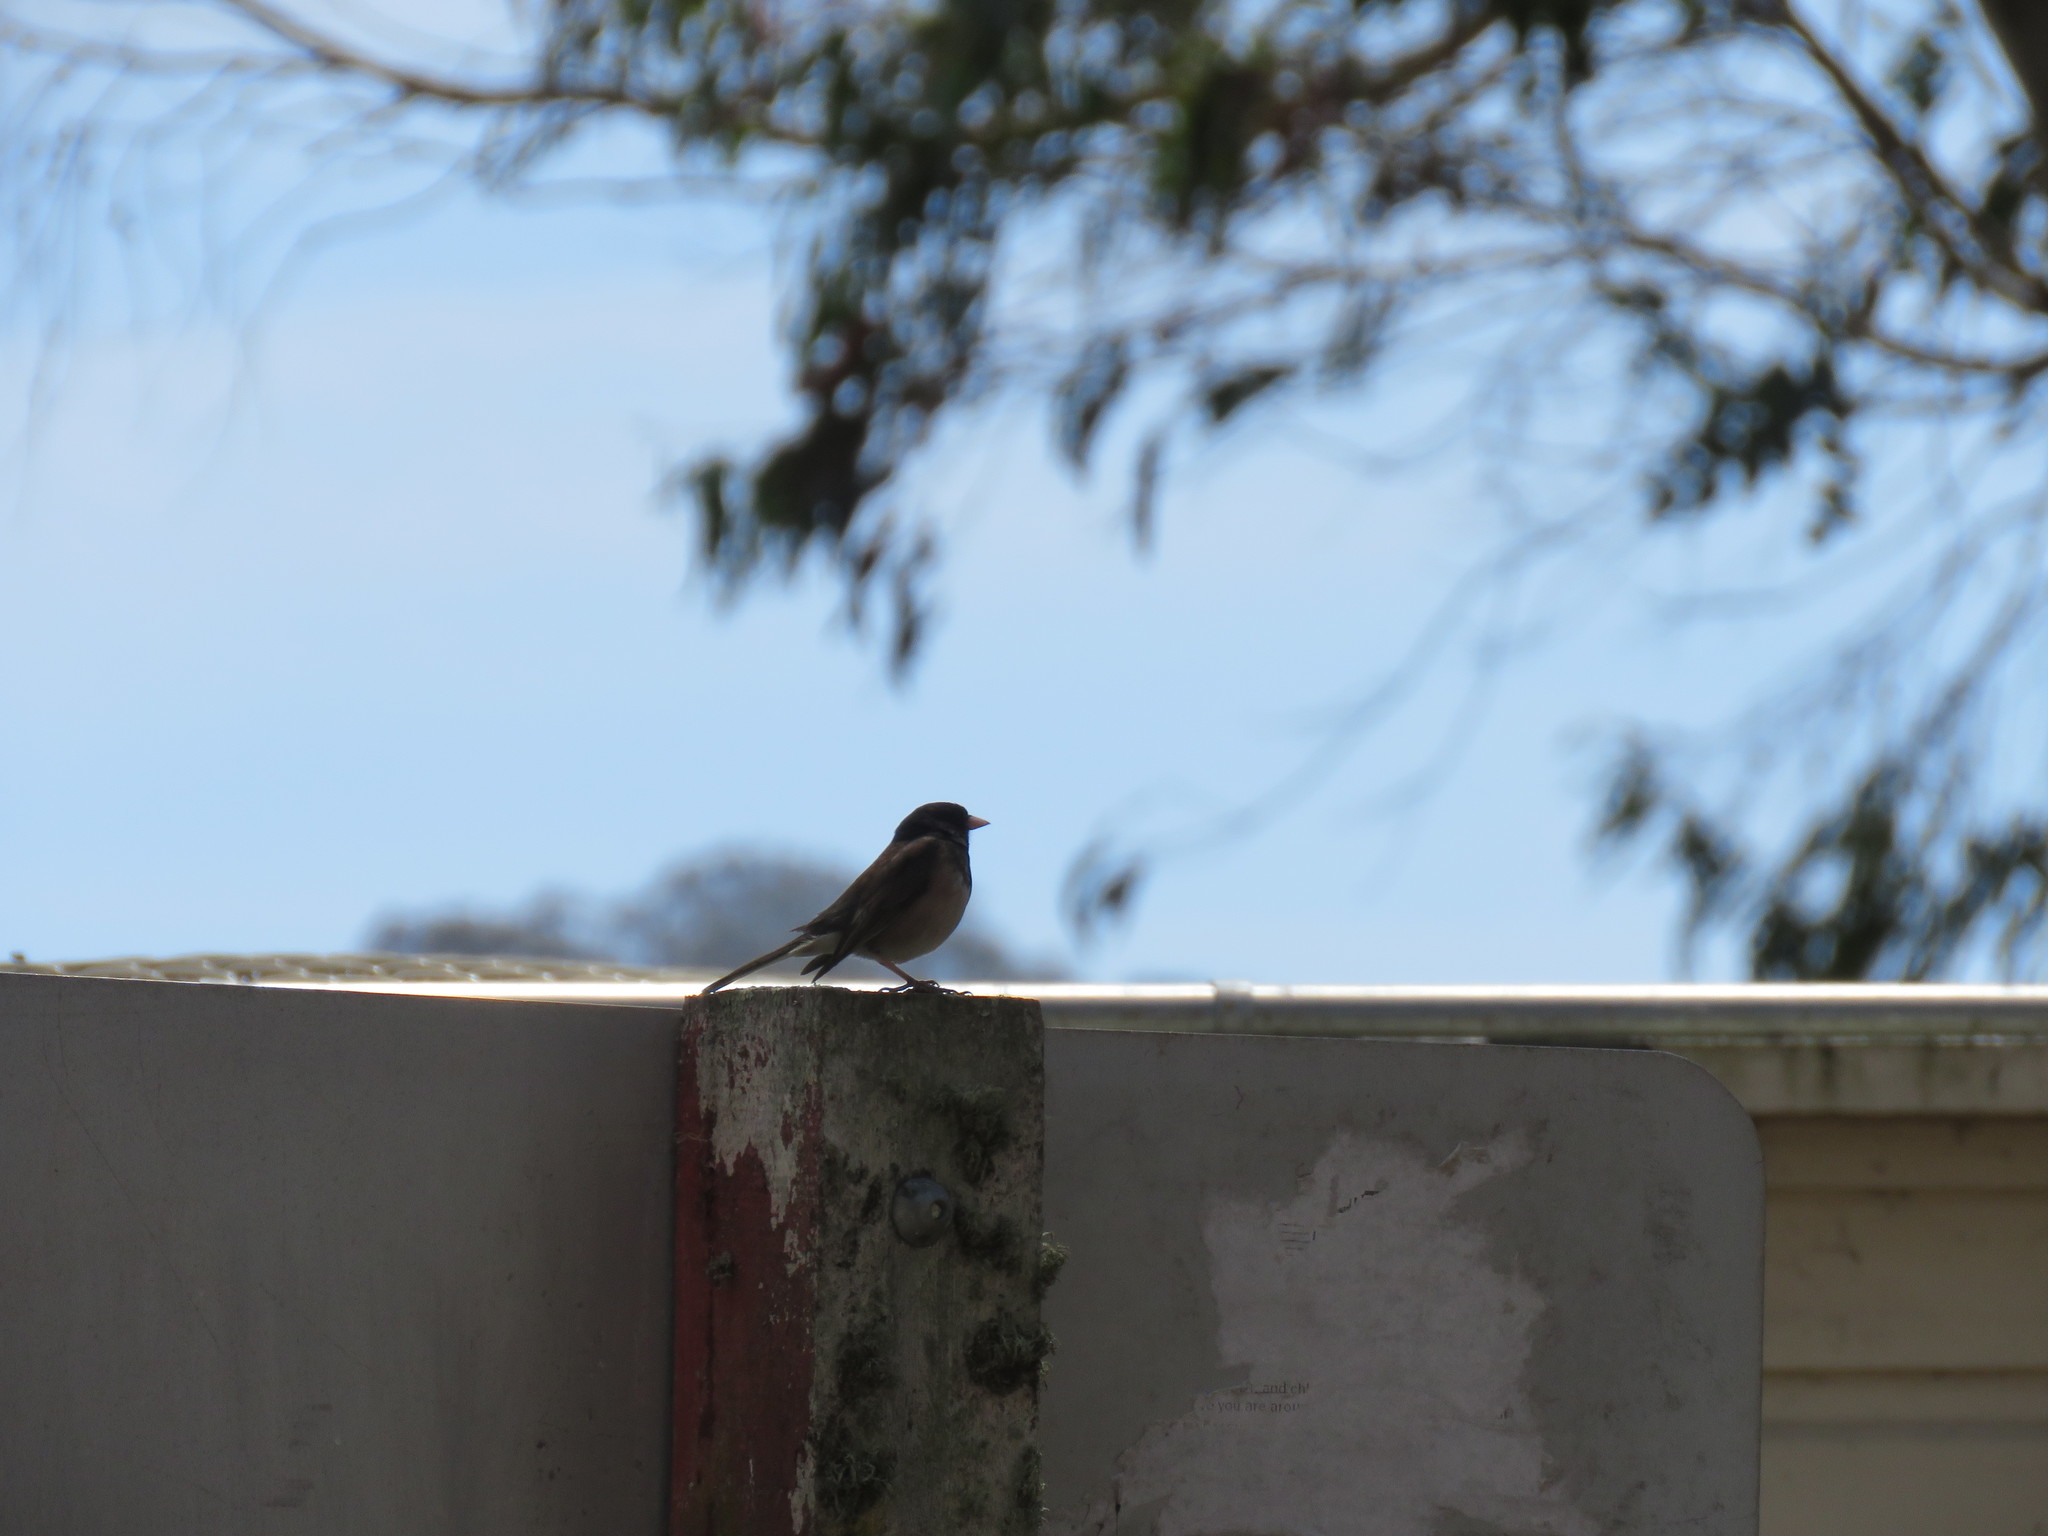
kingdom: Animalia
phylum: Chordata
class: Aves
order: Passeriformes
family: Passerellidae
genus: Junco
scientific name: Junco hyemalis
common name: Dark-eyed junco
